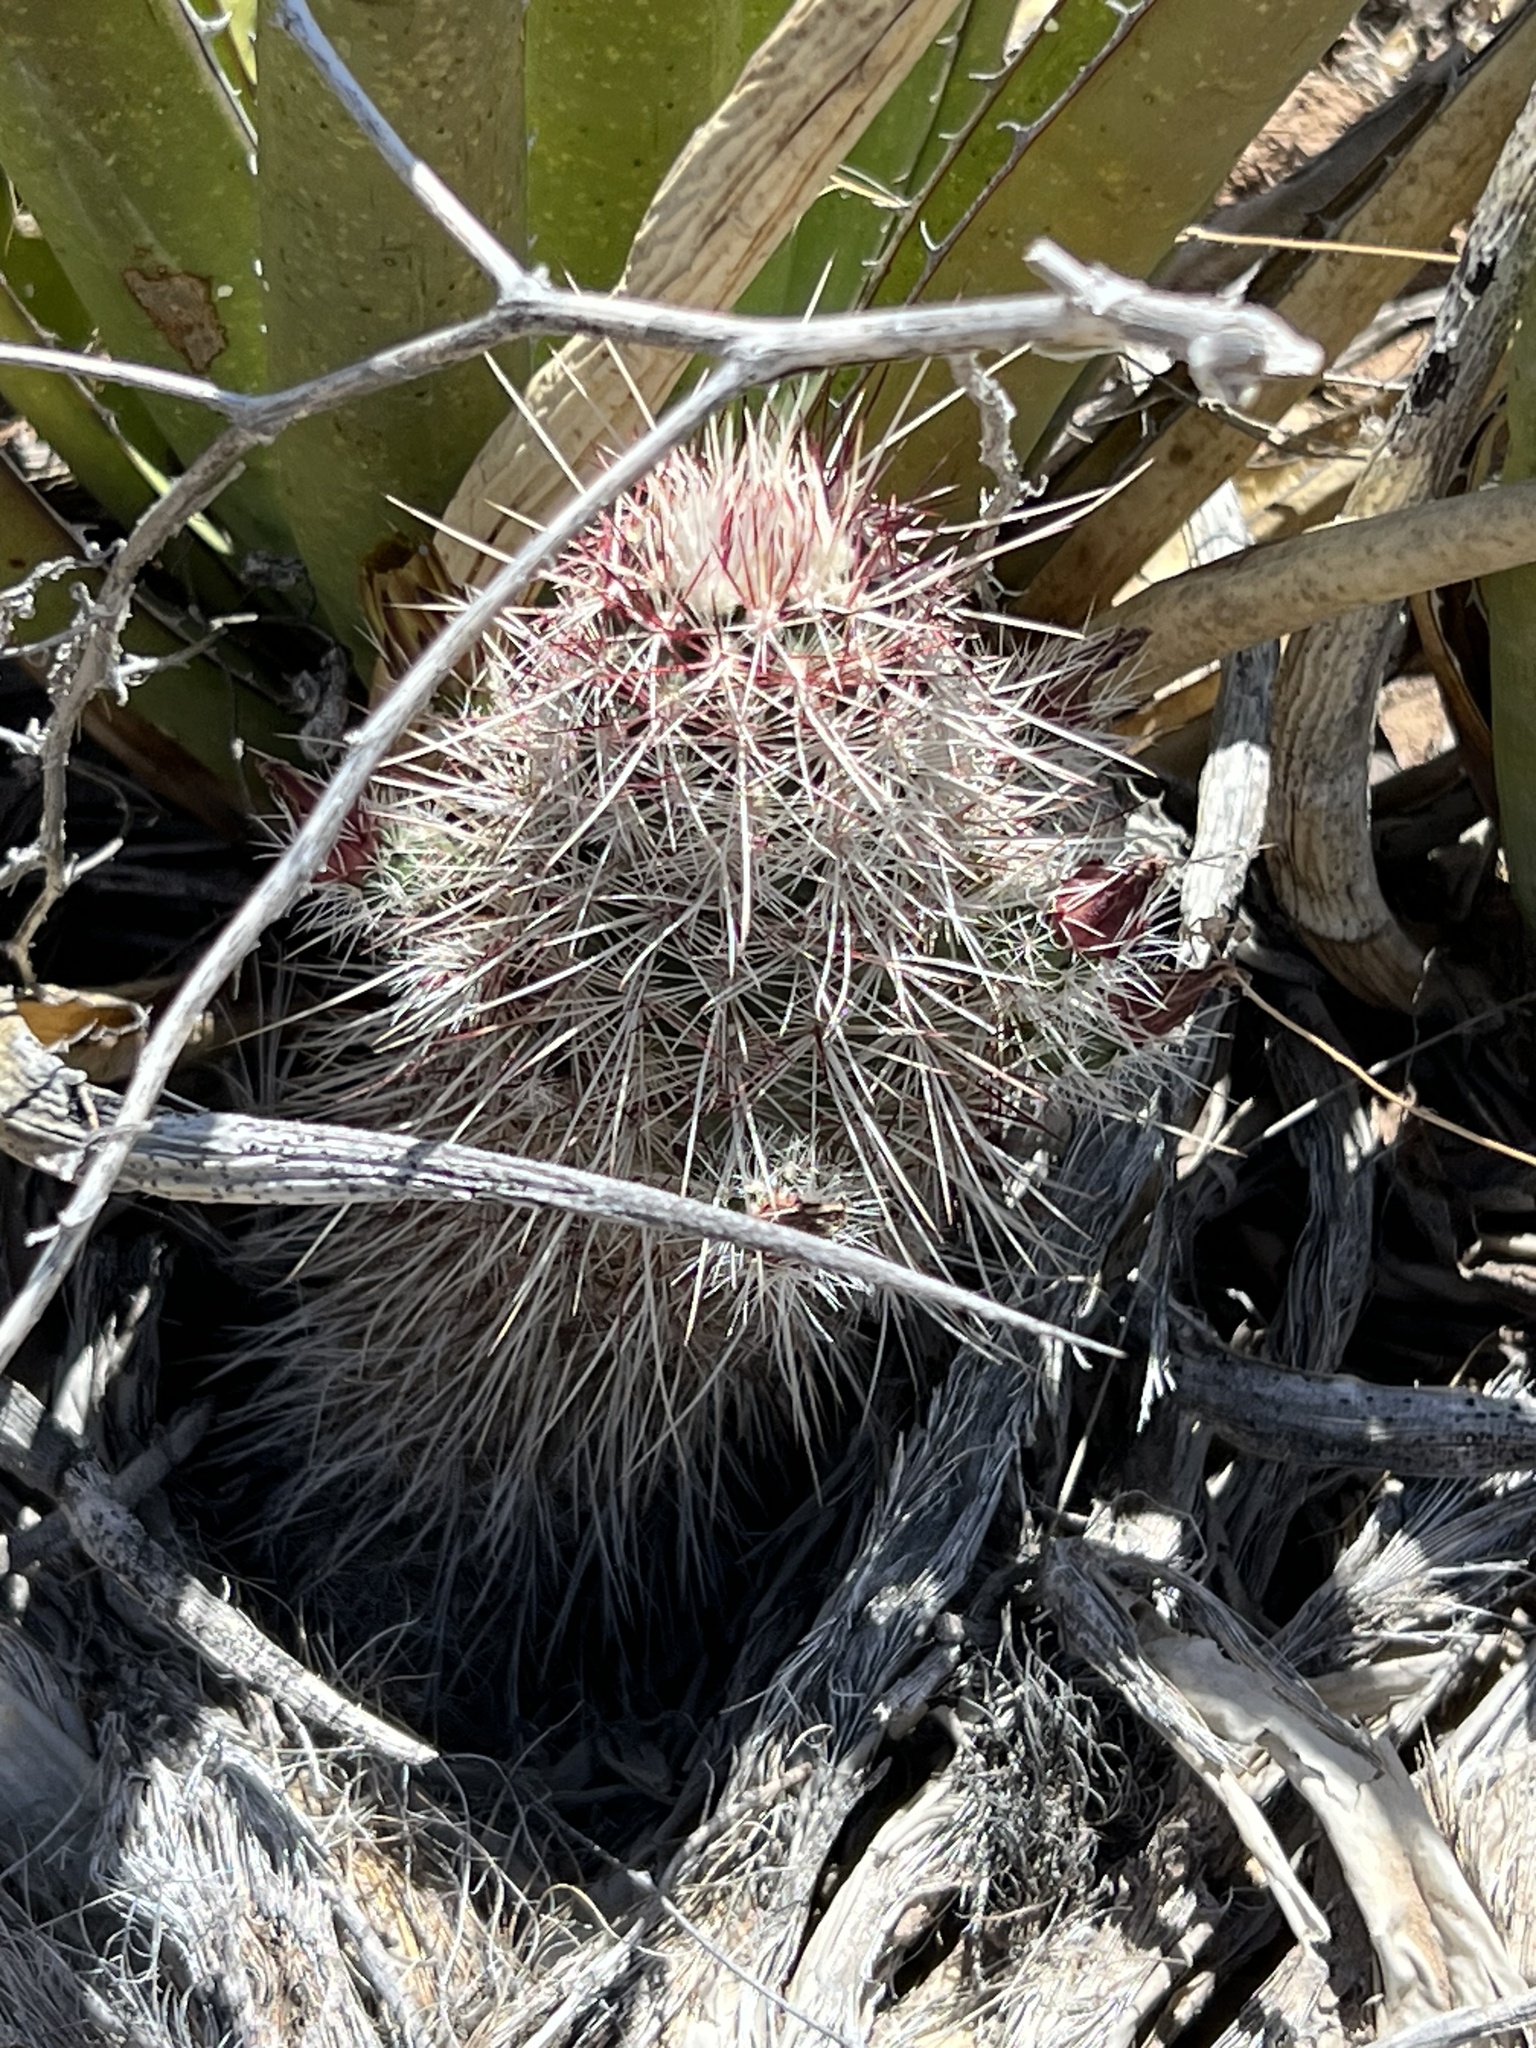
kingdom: Plantae
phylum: Tracheophyta
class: Magnoliopsida
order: Caryophyllales
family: Cactaceae
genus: Echinocereus
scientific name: Echinocereus viridiflorus
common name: Nylon hedgehog cactus
